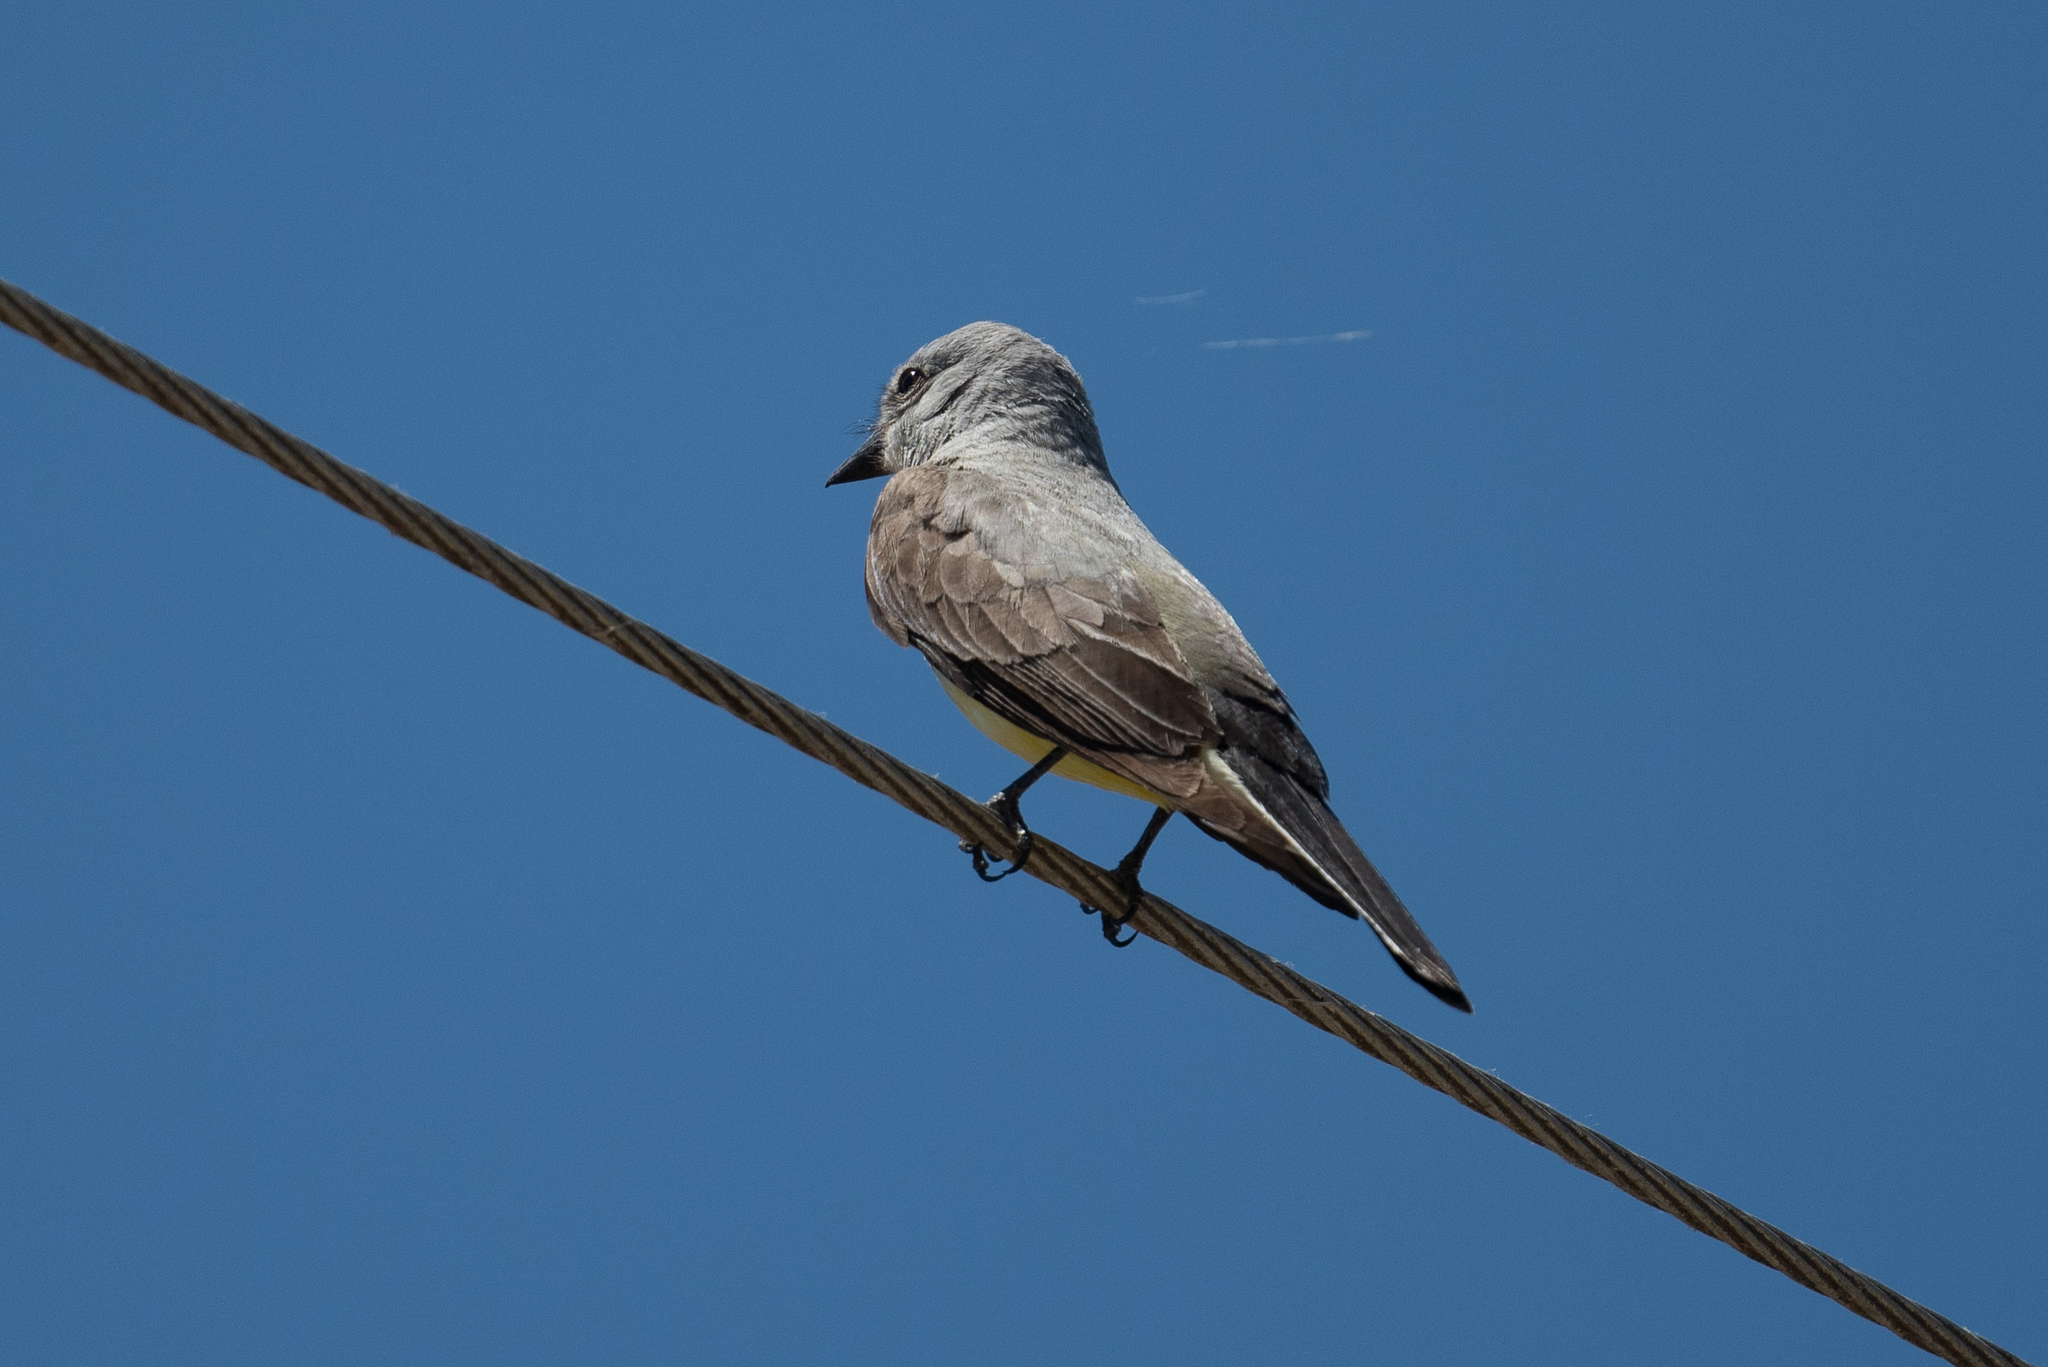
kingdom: Animalia
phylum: Chordata
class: Aves
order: Passeriformes
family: Tyrannidae
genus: Tyrannus
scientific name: Tyrannus verticalis
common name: Western kingbird
